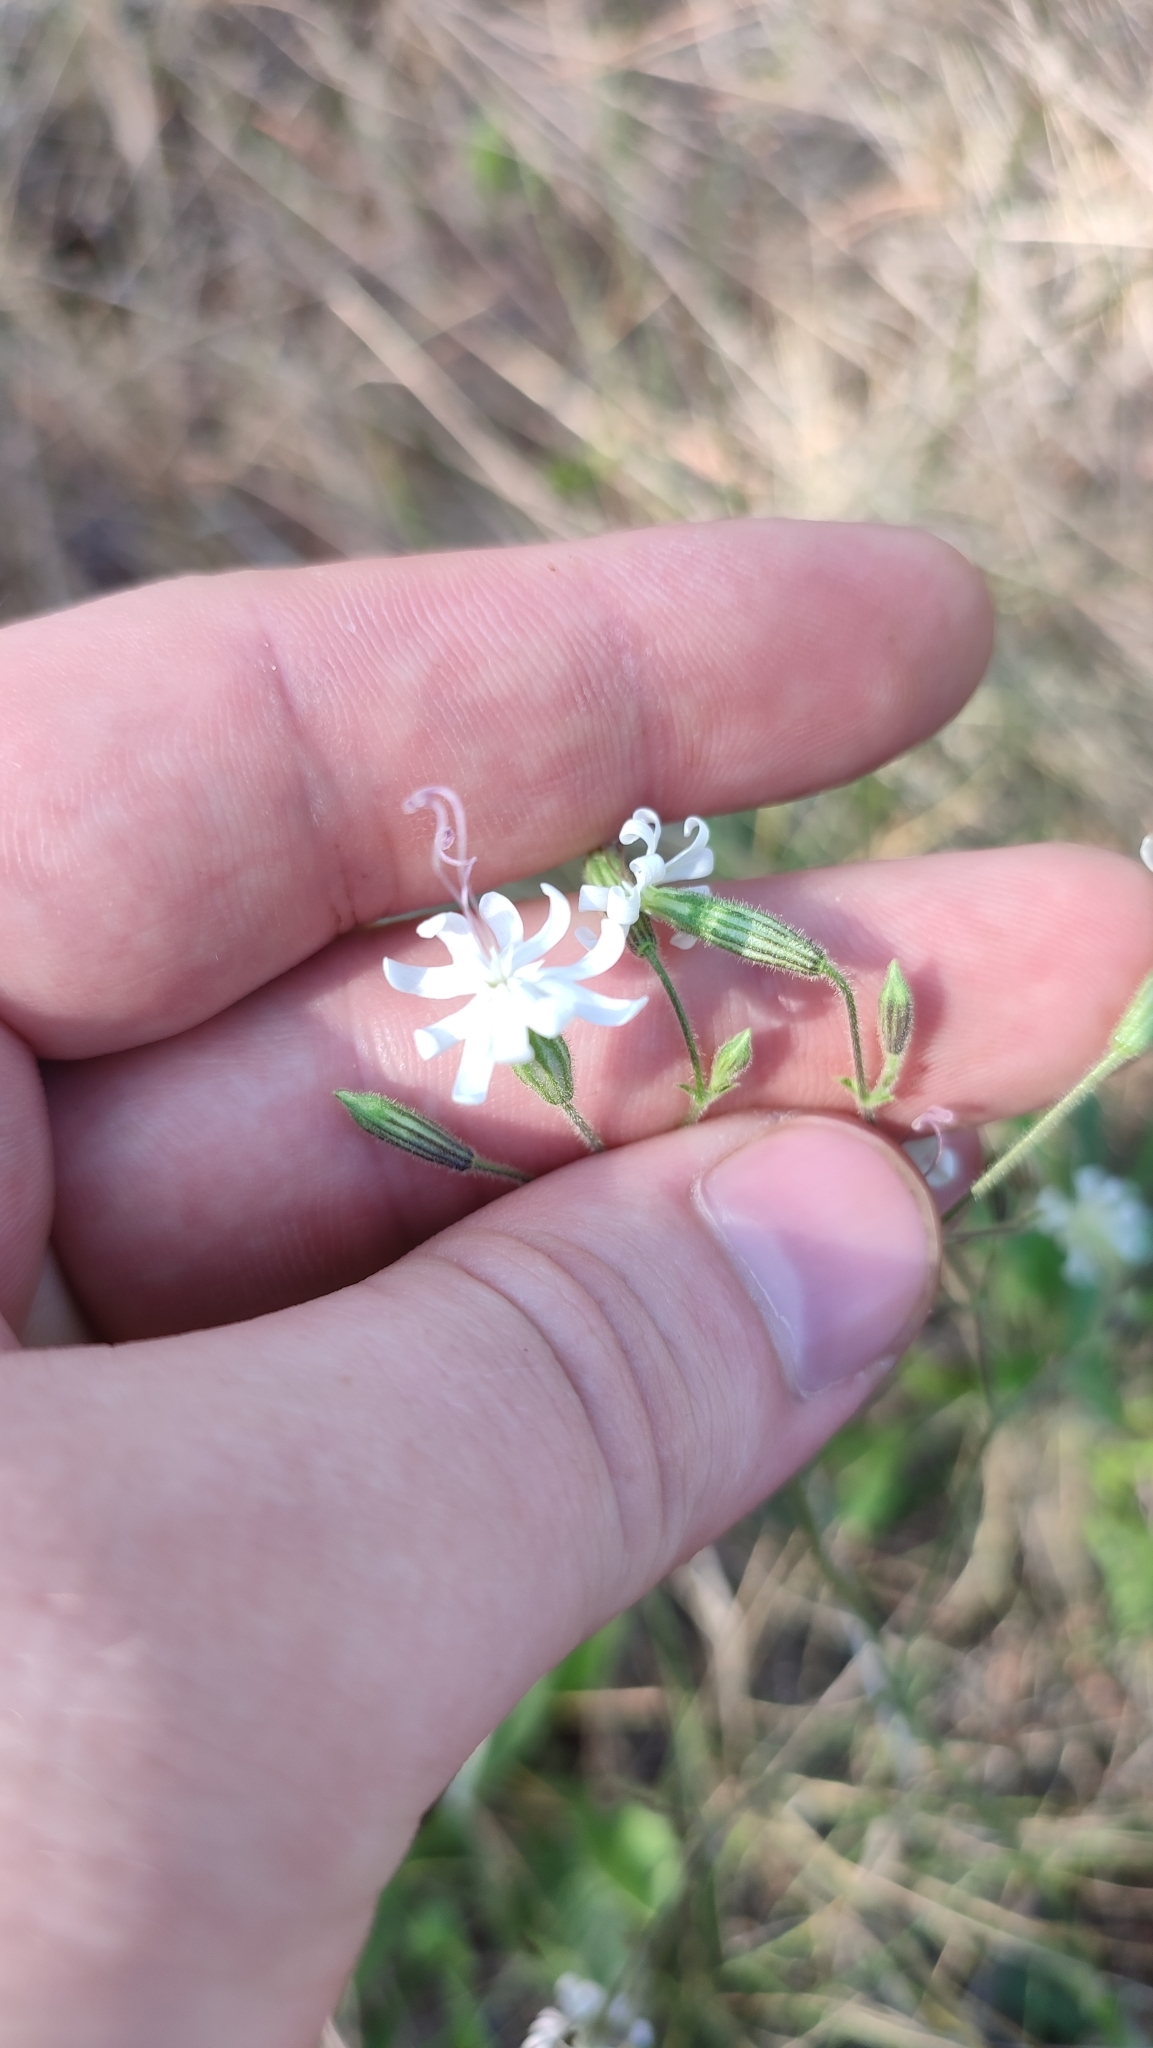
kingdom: Plantae
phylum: Tracheophyta
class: Magnoliopsida
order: Caryophyllales
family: Caryophyllaceae
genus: Silene
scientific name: Silene nutans
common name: Nottingham catchfly
